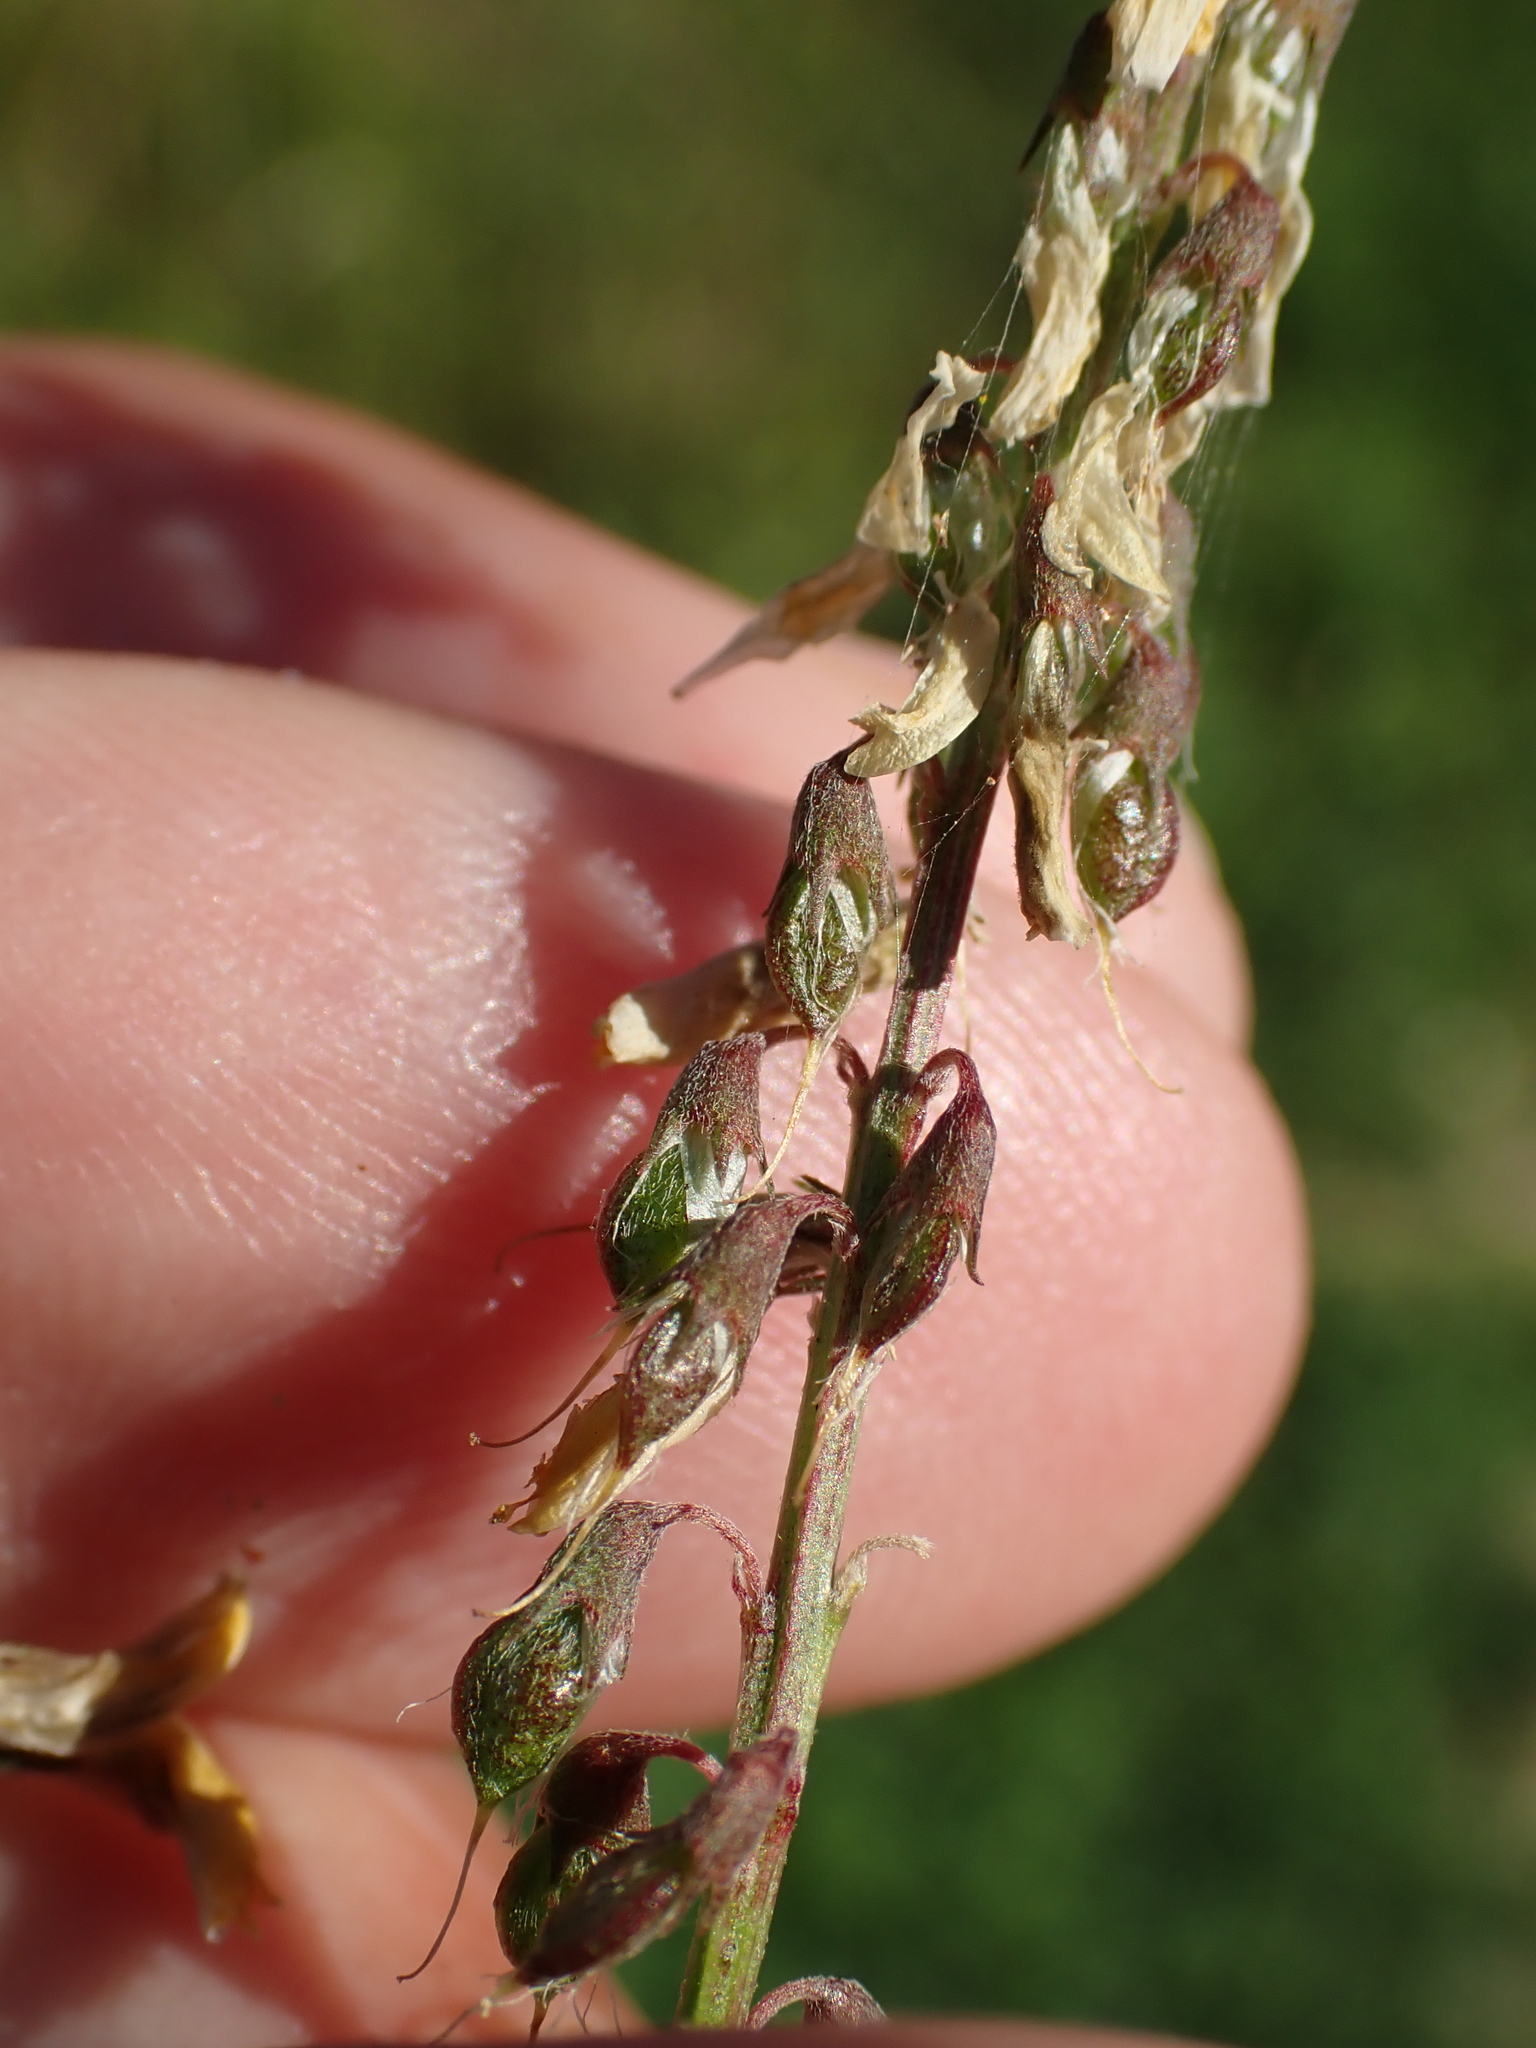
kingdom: Plantae
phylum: Tracheophyta
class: Magnoliopsida
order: Fabales
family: Fabaceae
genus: Melilotus
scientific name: Melilotus officinalis
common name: Sweetclover
